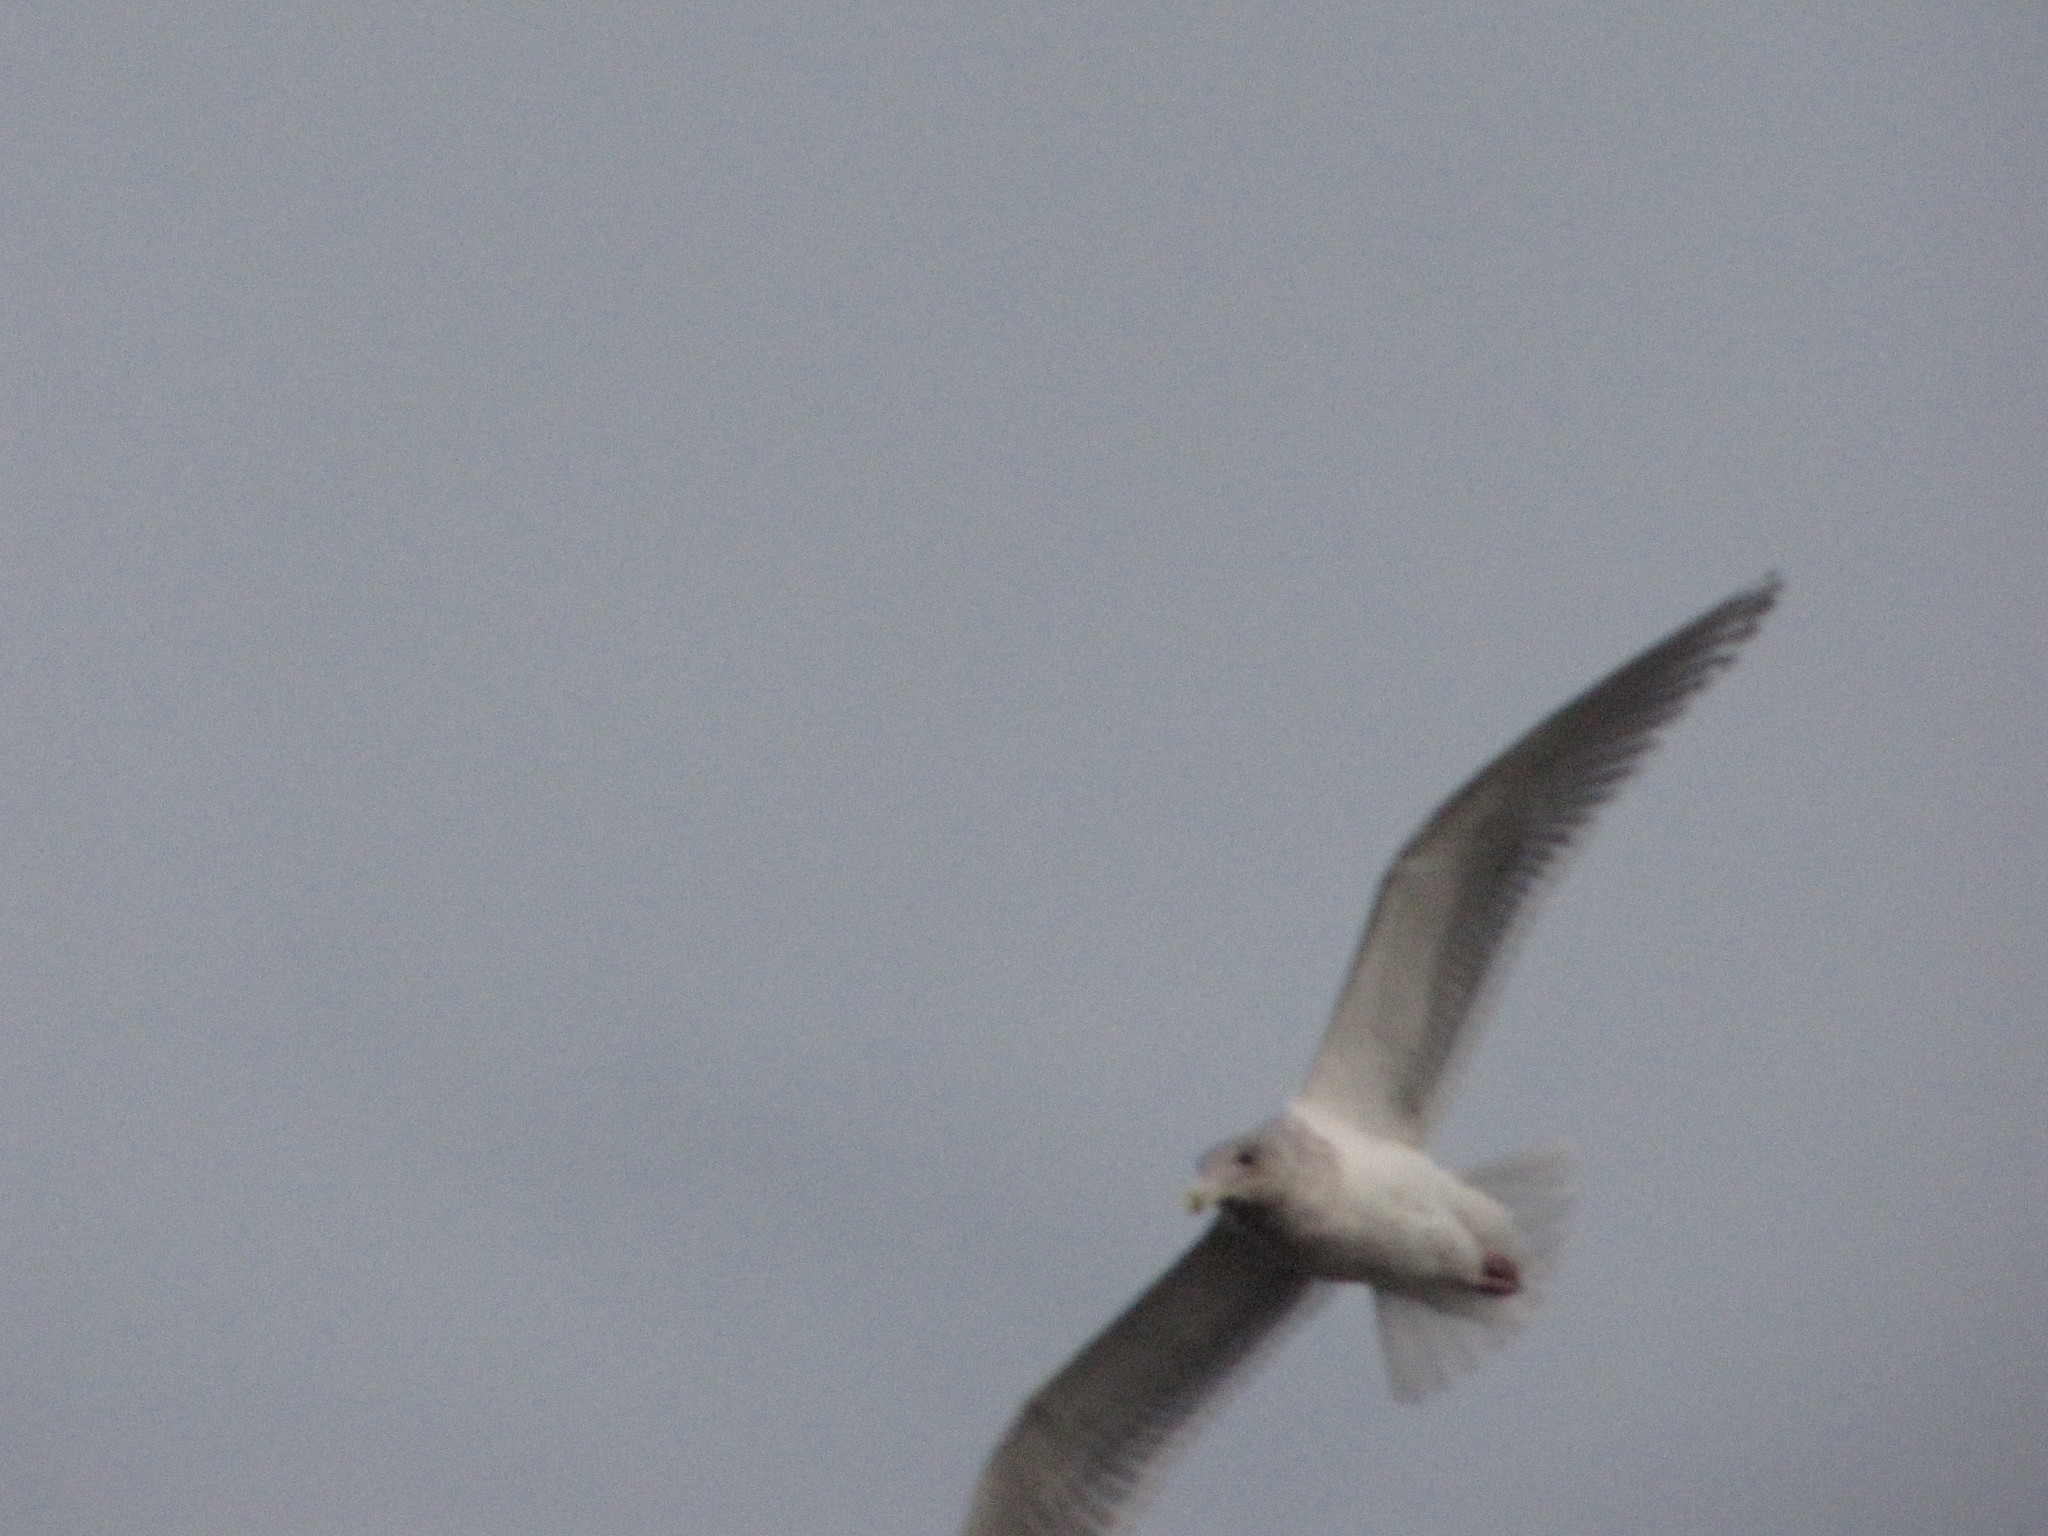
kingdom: Animalia
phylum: Chordata
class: Aves
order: Charadriiformes
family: Laridae
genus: Larus
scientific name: Larus glaucescens
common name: Glaucous-winged gull
